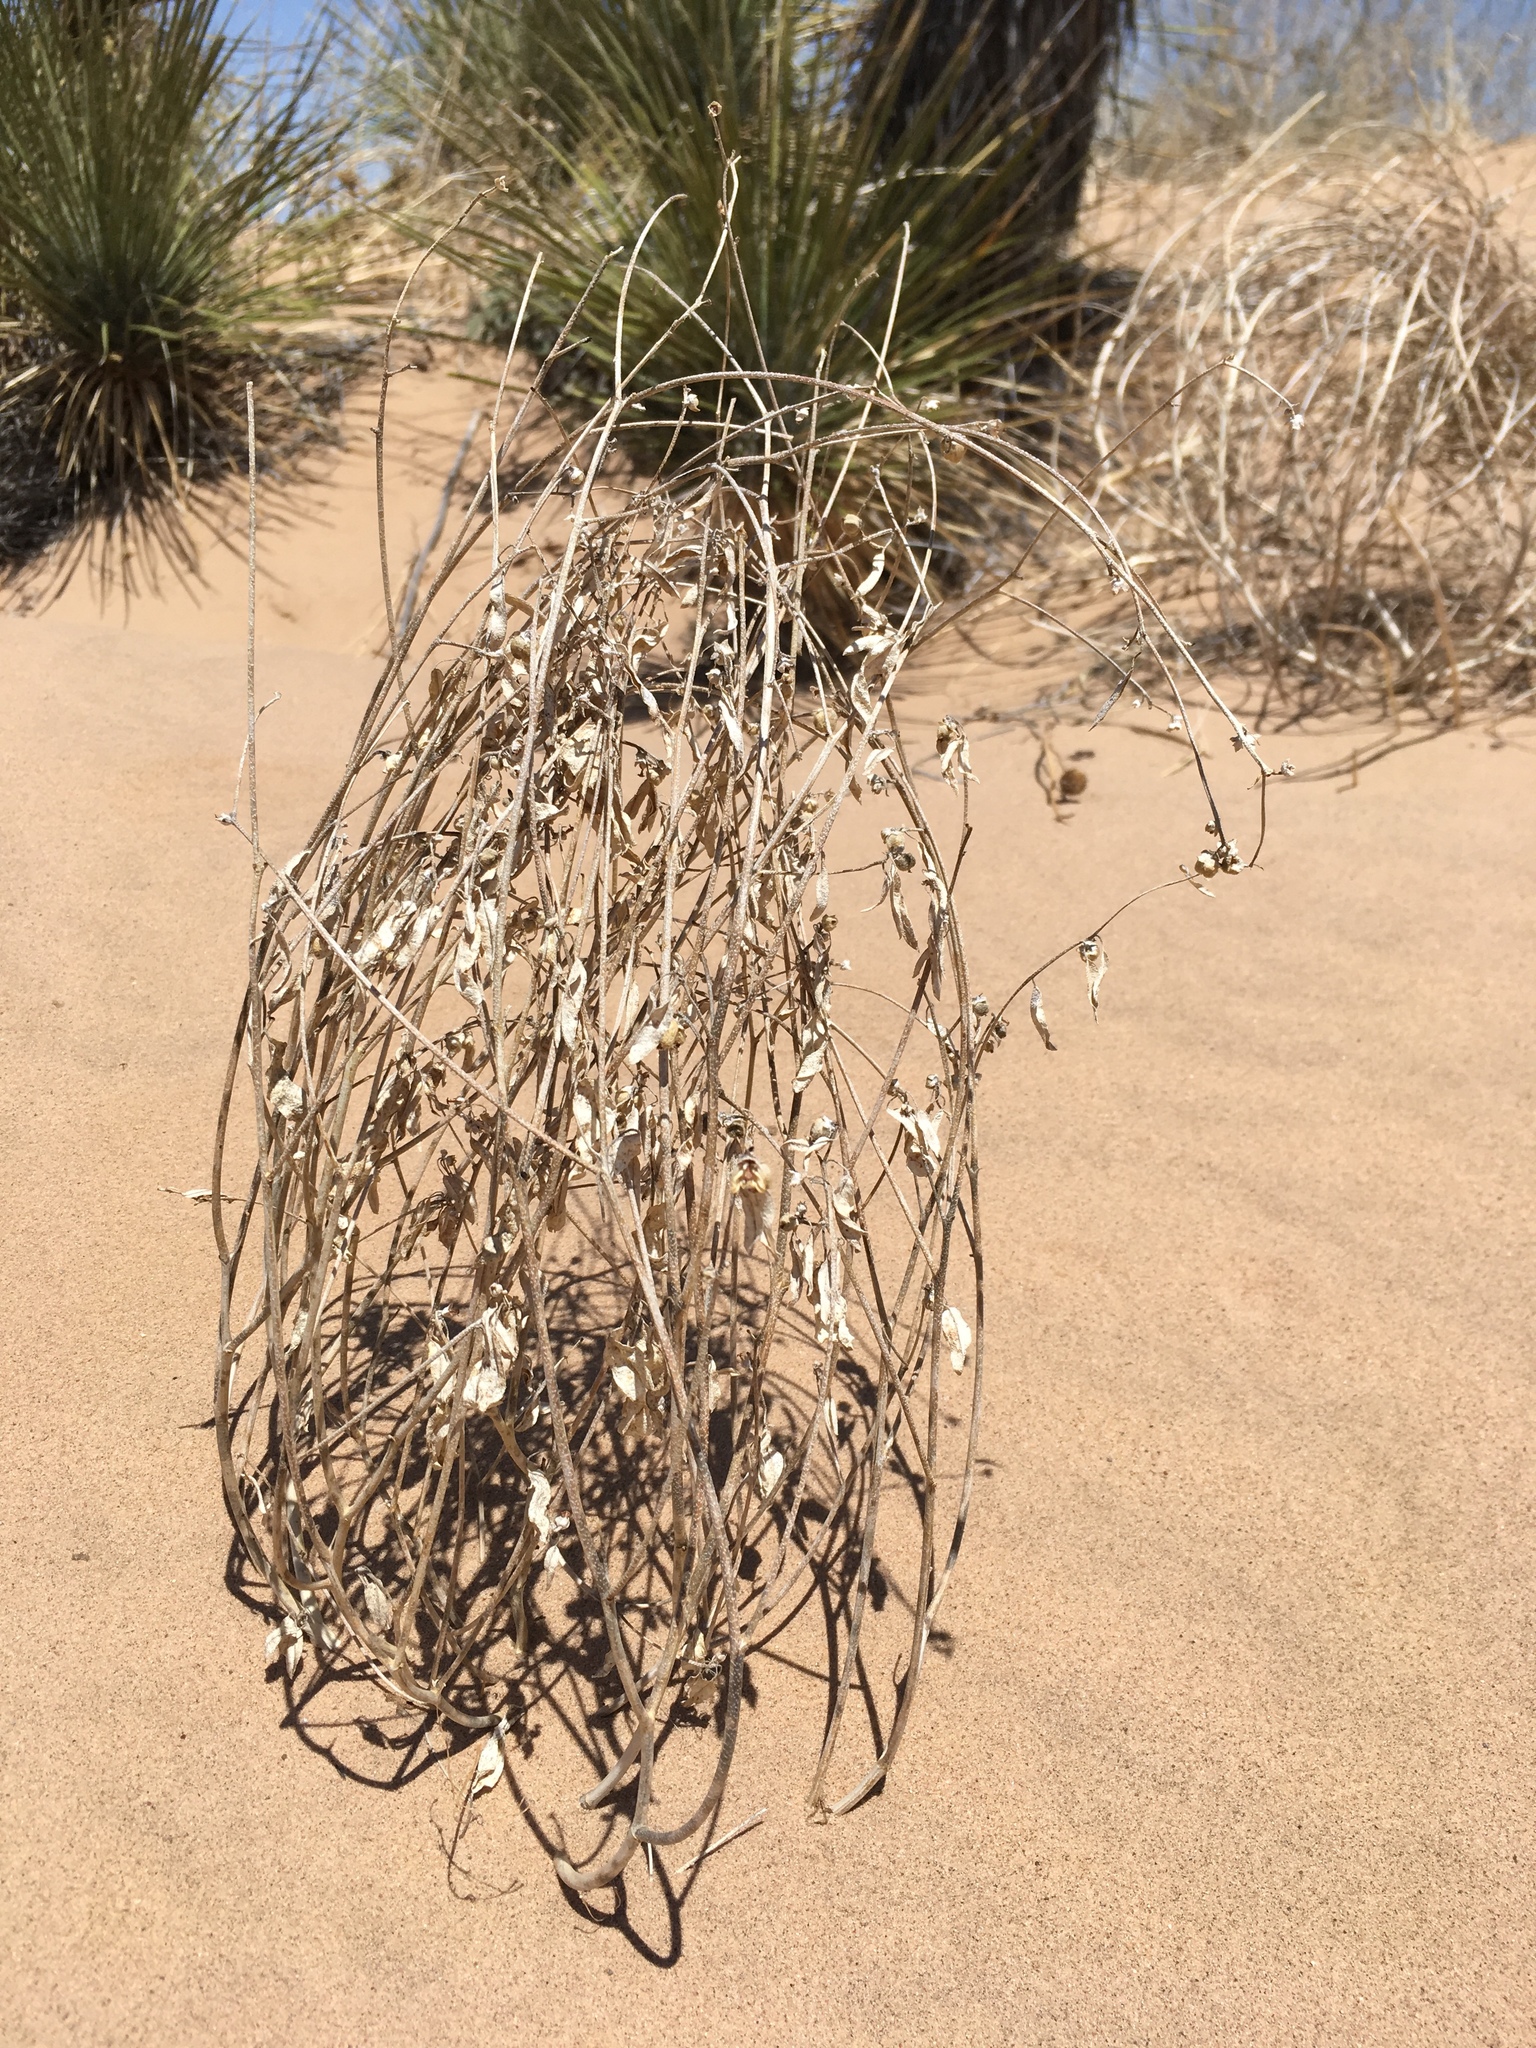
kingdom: Plantae
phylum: Tracheophyta
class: Magnoliopsida
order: Malpighiales
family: Euphorbiaceae
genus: Croton
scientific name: Croton texensis
